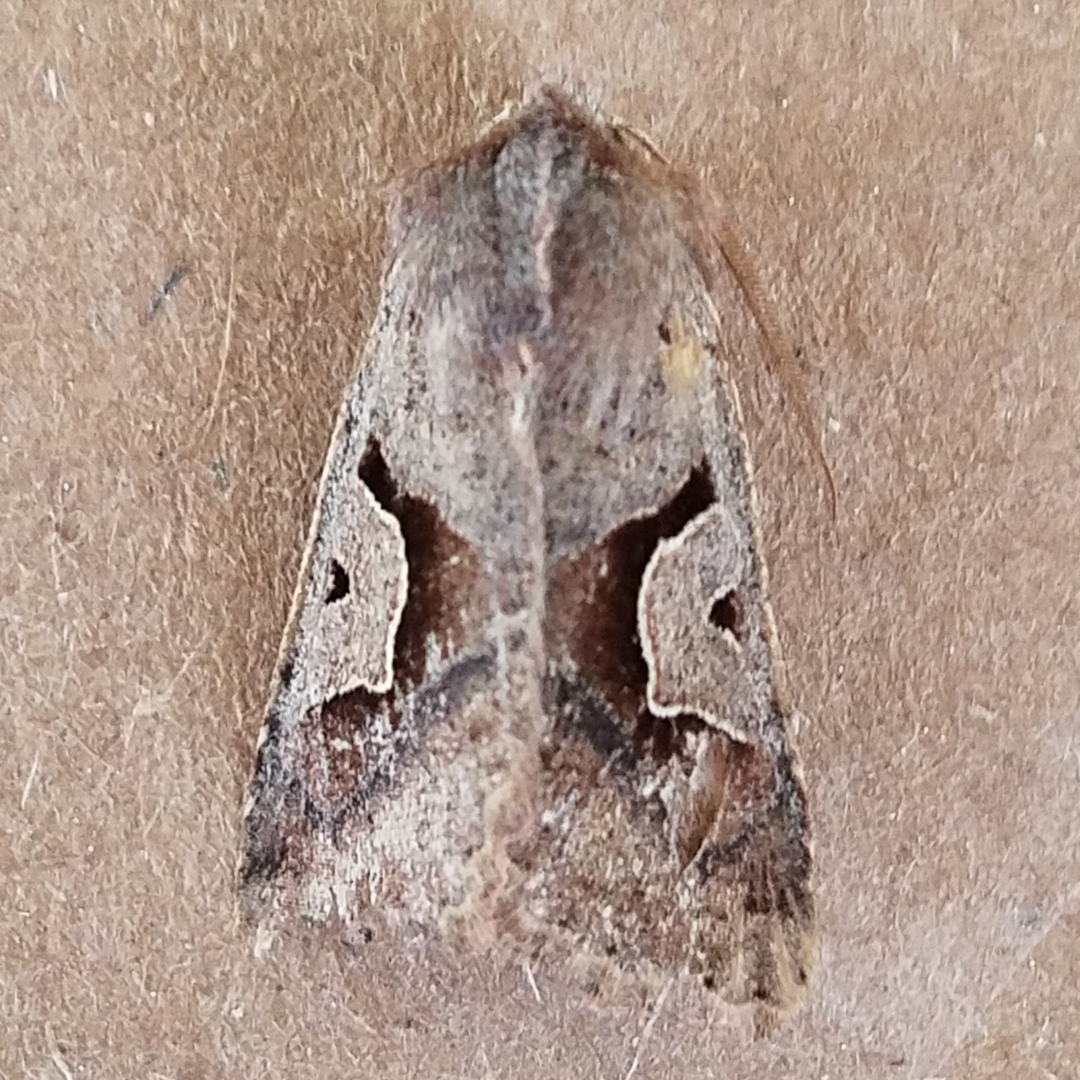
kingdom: Animalia
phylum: Arthropoda
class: Insecta
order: Lepidoptera
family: Noctuidae
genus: Acerra
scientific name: Acerra normalis
